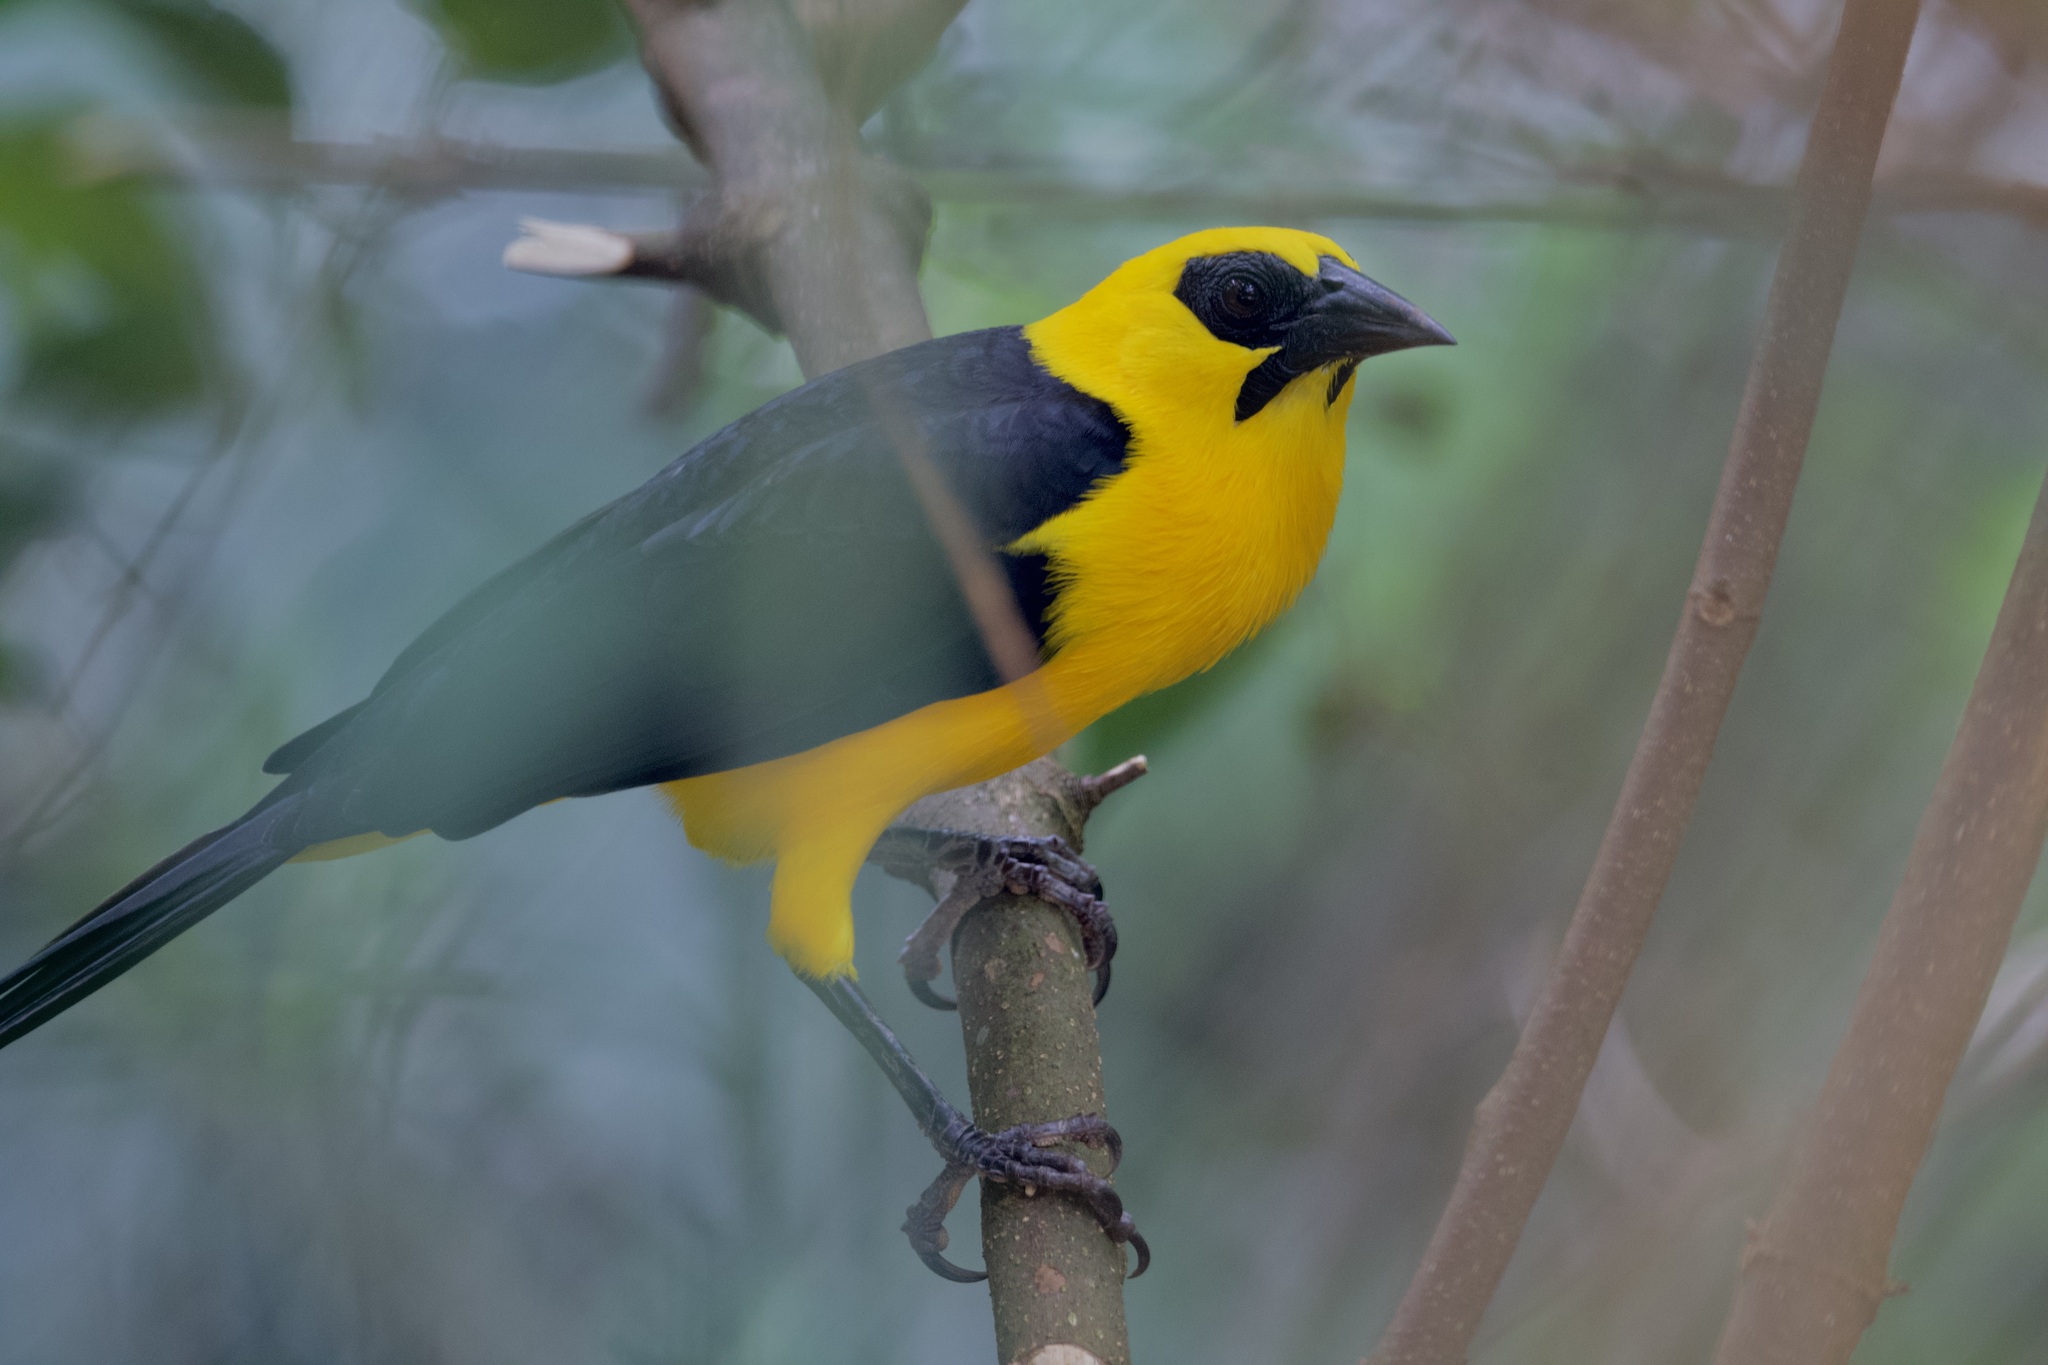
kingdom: Animalia
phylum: Chordata
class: Aves
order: Passeriformes
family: Icteridae
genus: Gymnomystax
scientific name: Gymnomystax mexicanus
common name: Oriole blackbird
